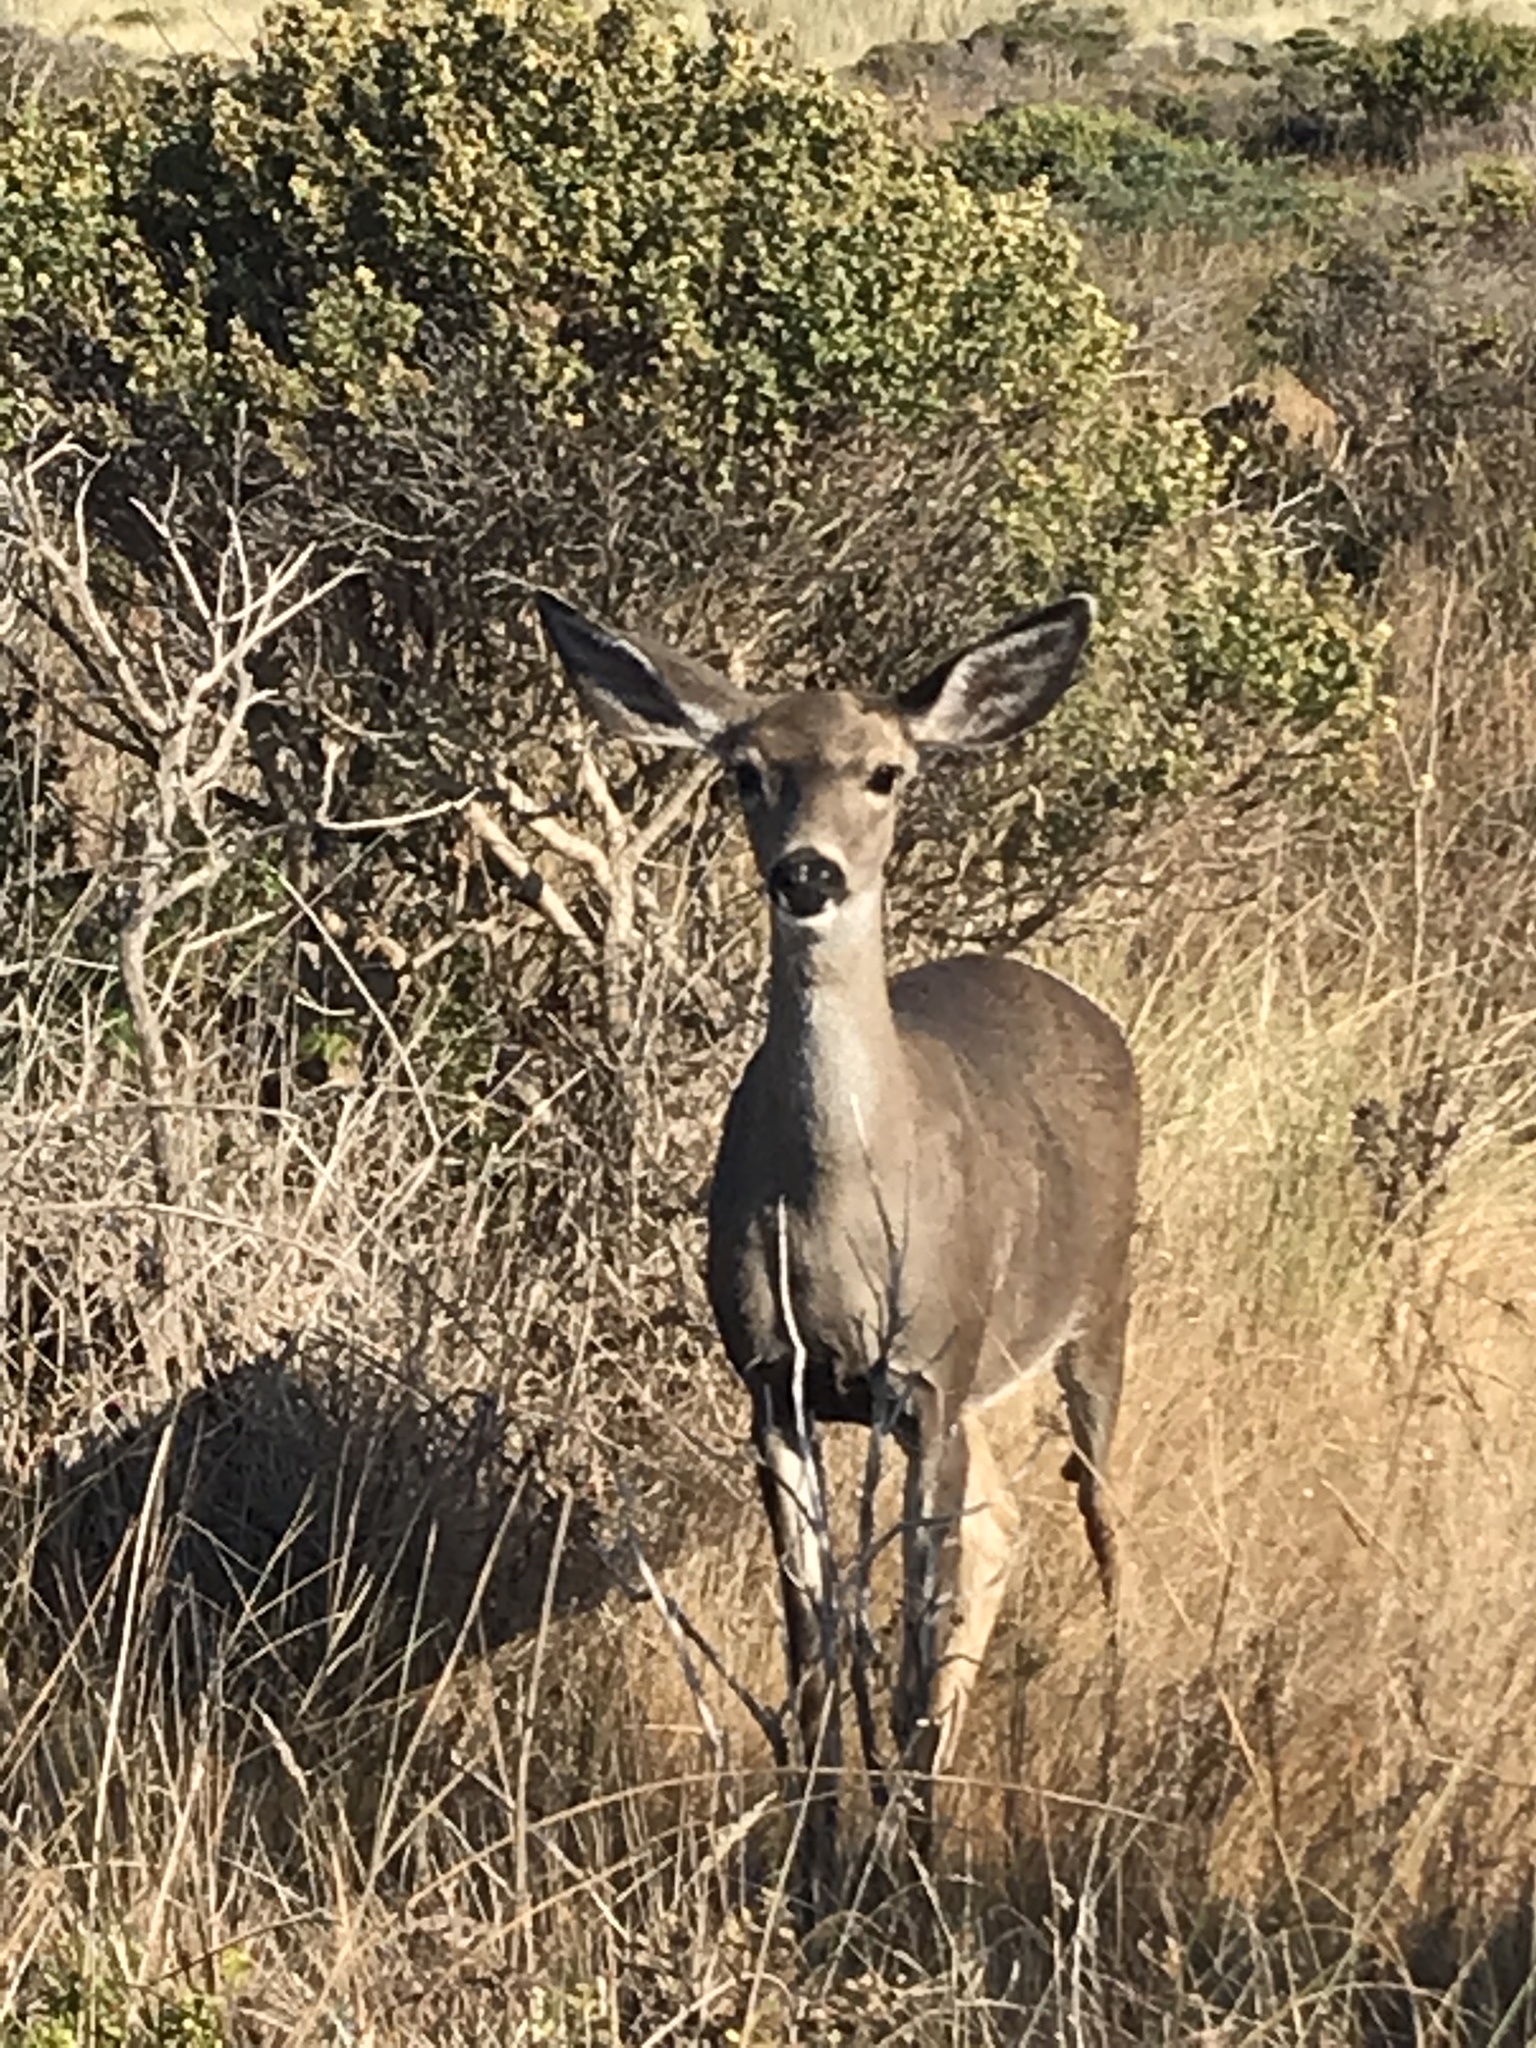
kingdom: Animalia
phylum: Chordata
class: Mammalia
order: Artiodactyla
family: Cervidae
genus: Odocoileus
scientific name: Odocoileus hemionus
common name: Mule deer
